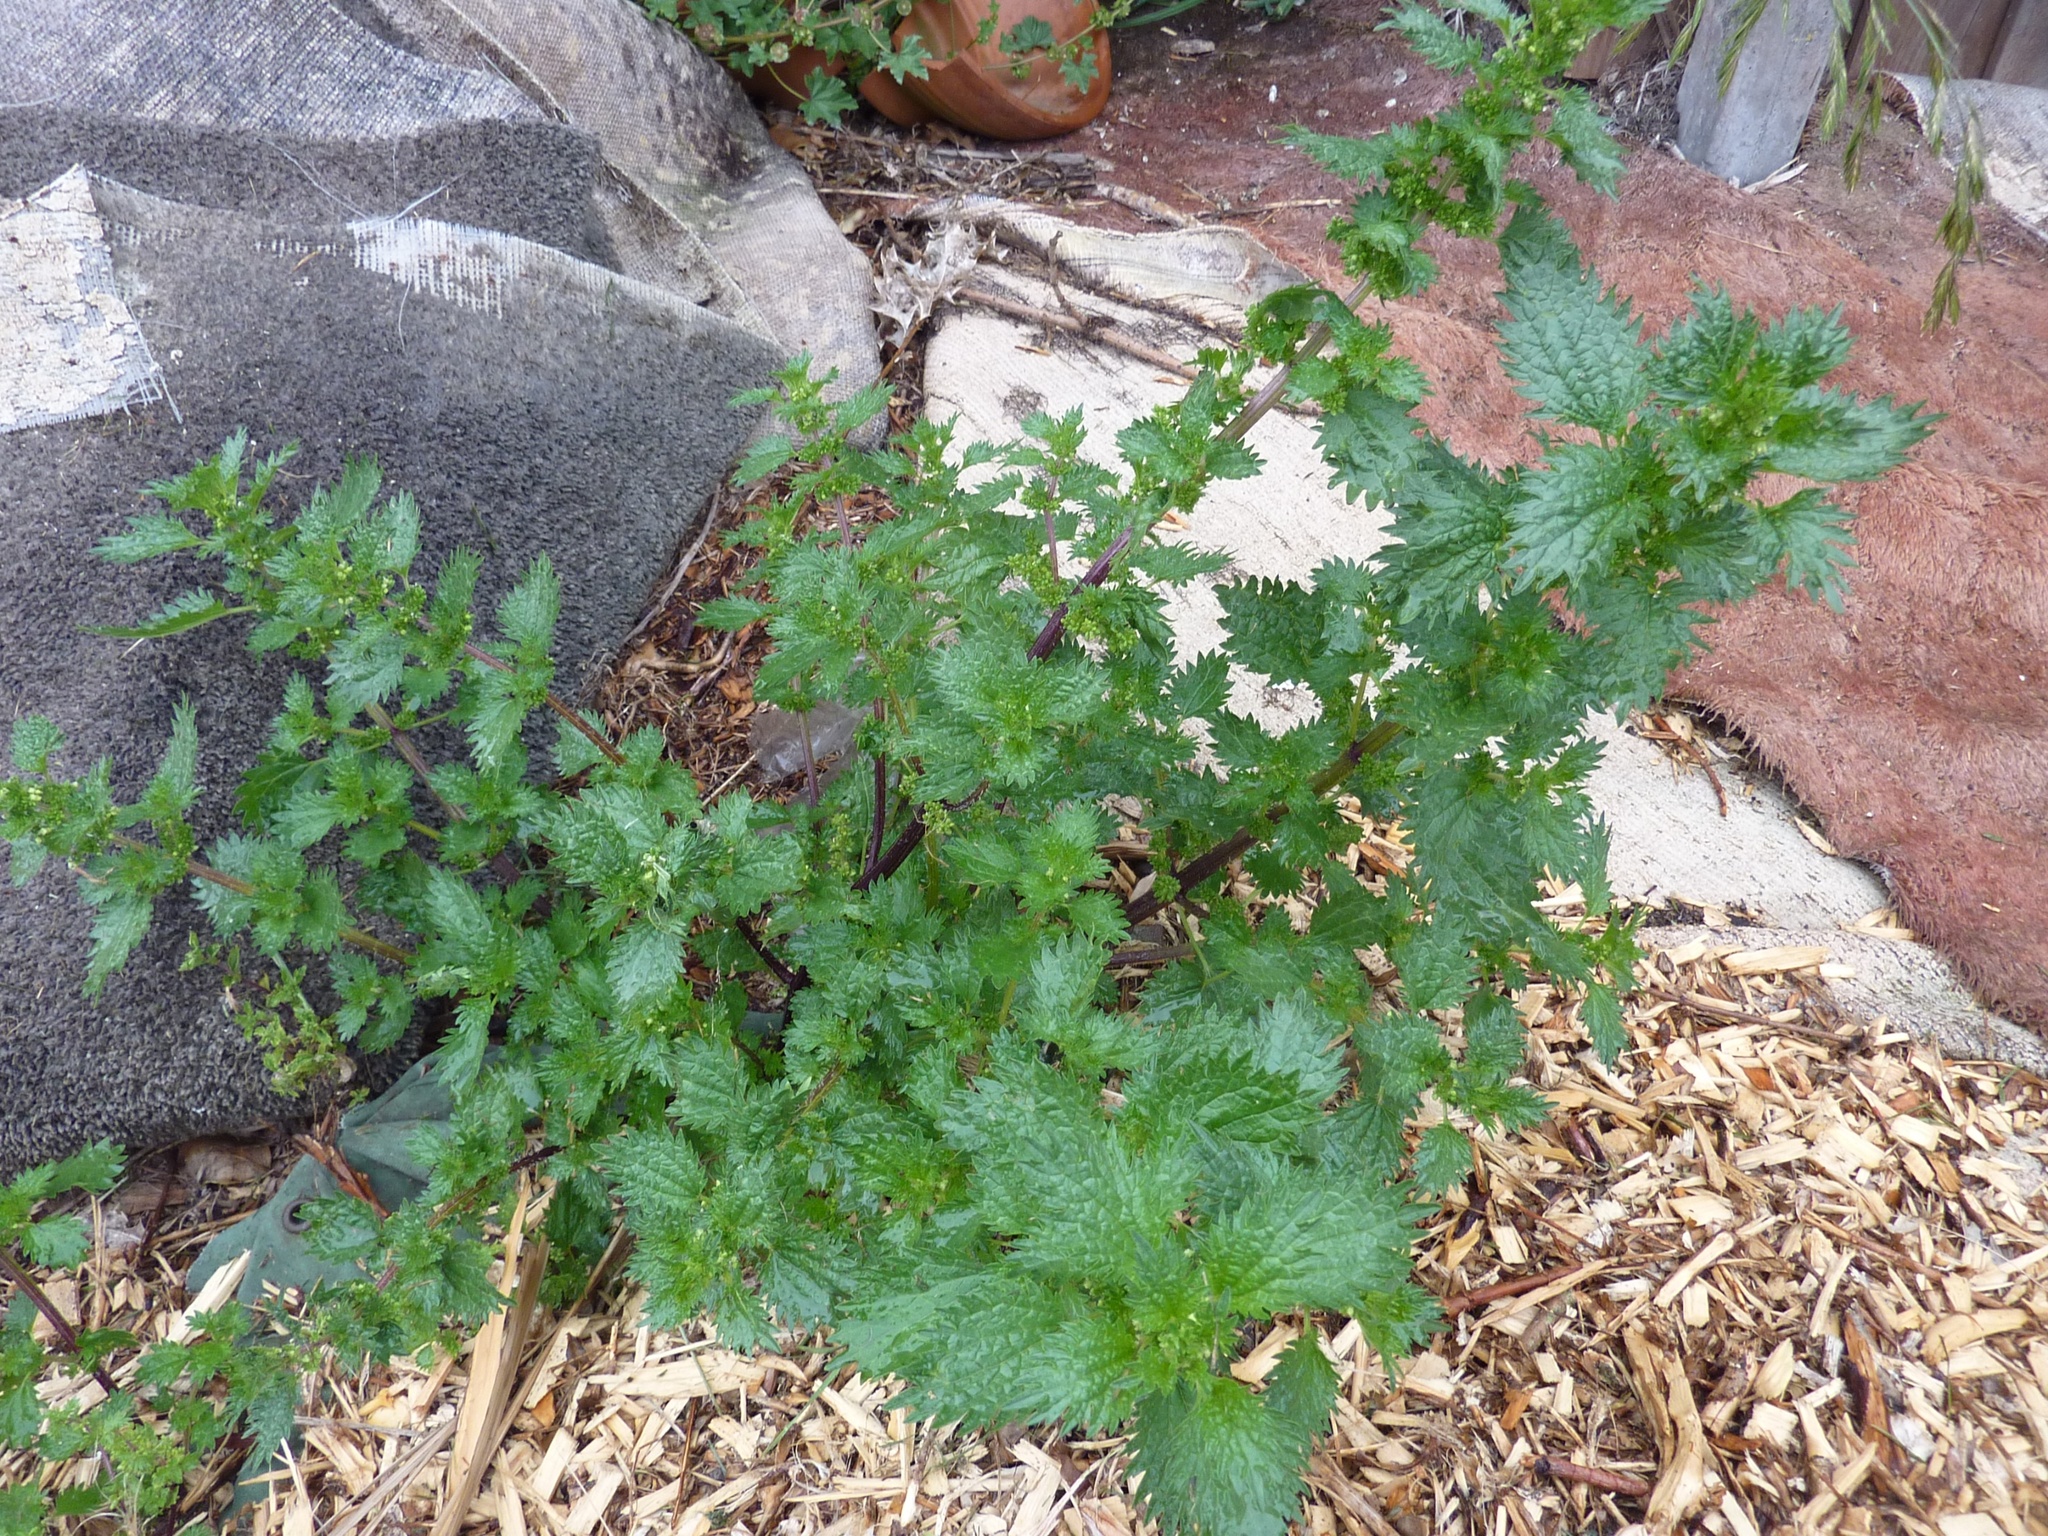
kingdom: Plantae
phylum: Tracheophyta
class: Magnoliopsida
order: Rosales
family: Urticaceae
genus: Urtica
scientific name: Urtica urens
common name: Dwarf nettle
